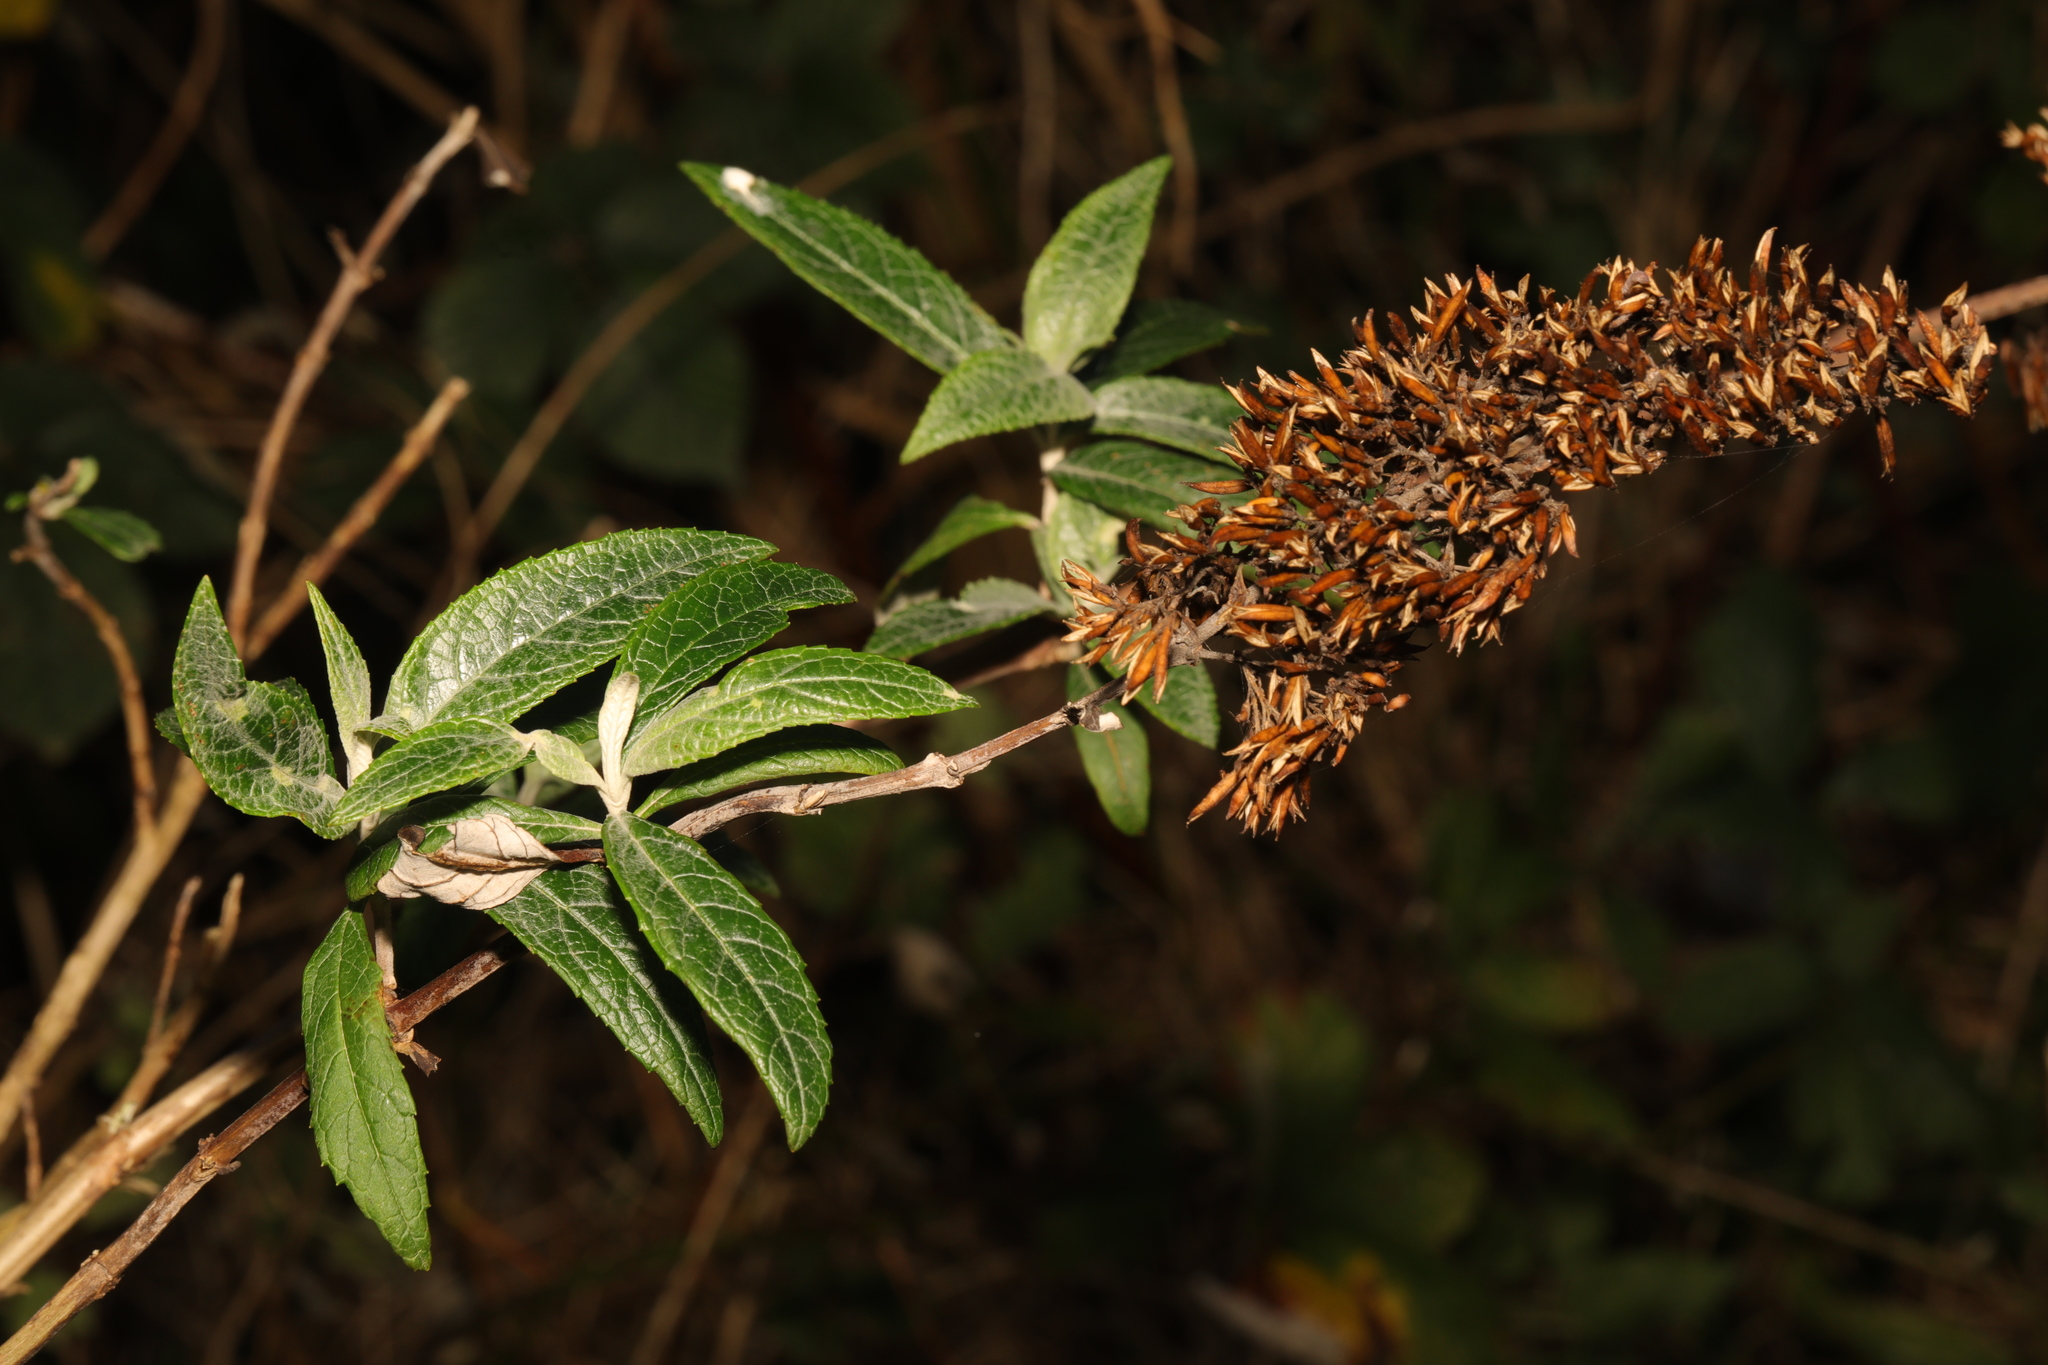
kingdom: Plantae
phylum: Tracheophyta
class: Magnoliopsida
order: Lamiales
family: Scrophulariaceae
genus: Buddleja
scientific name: Buddleja davidii
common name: Butterfly-bush
